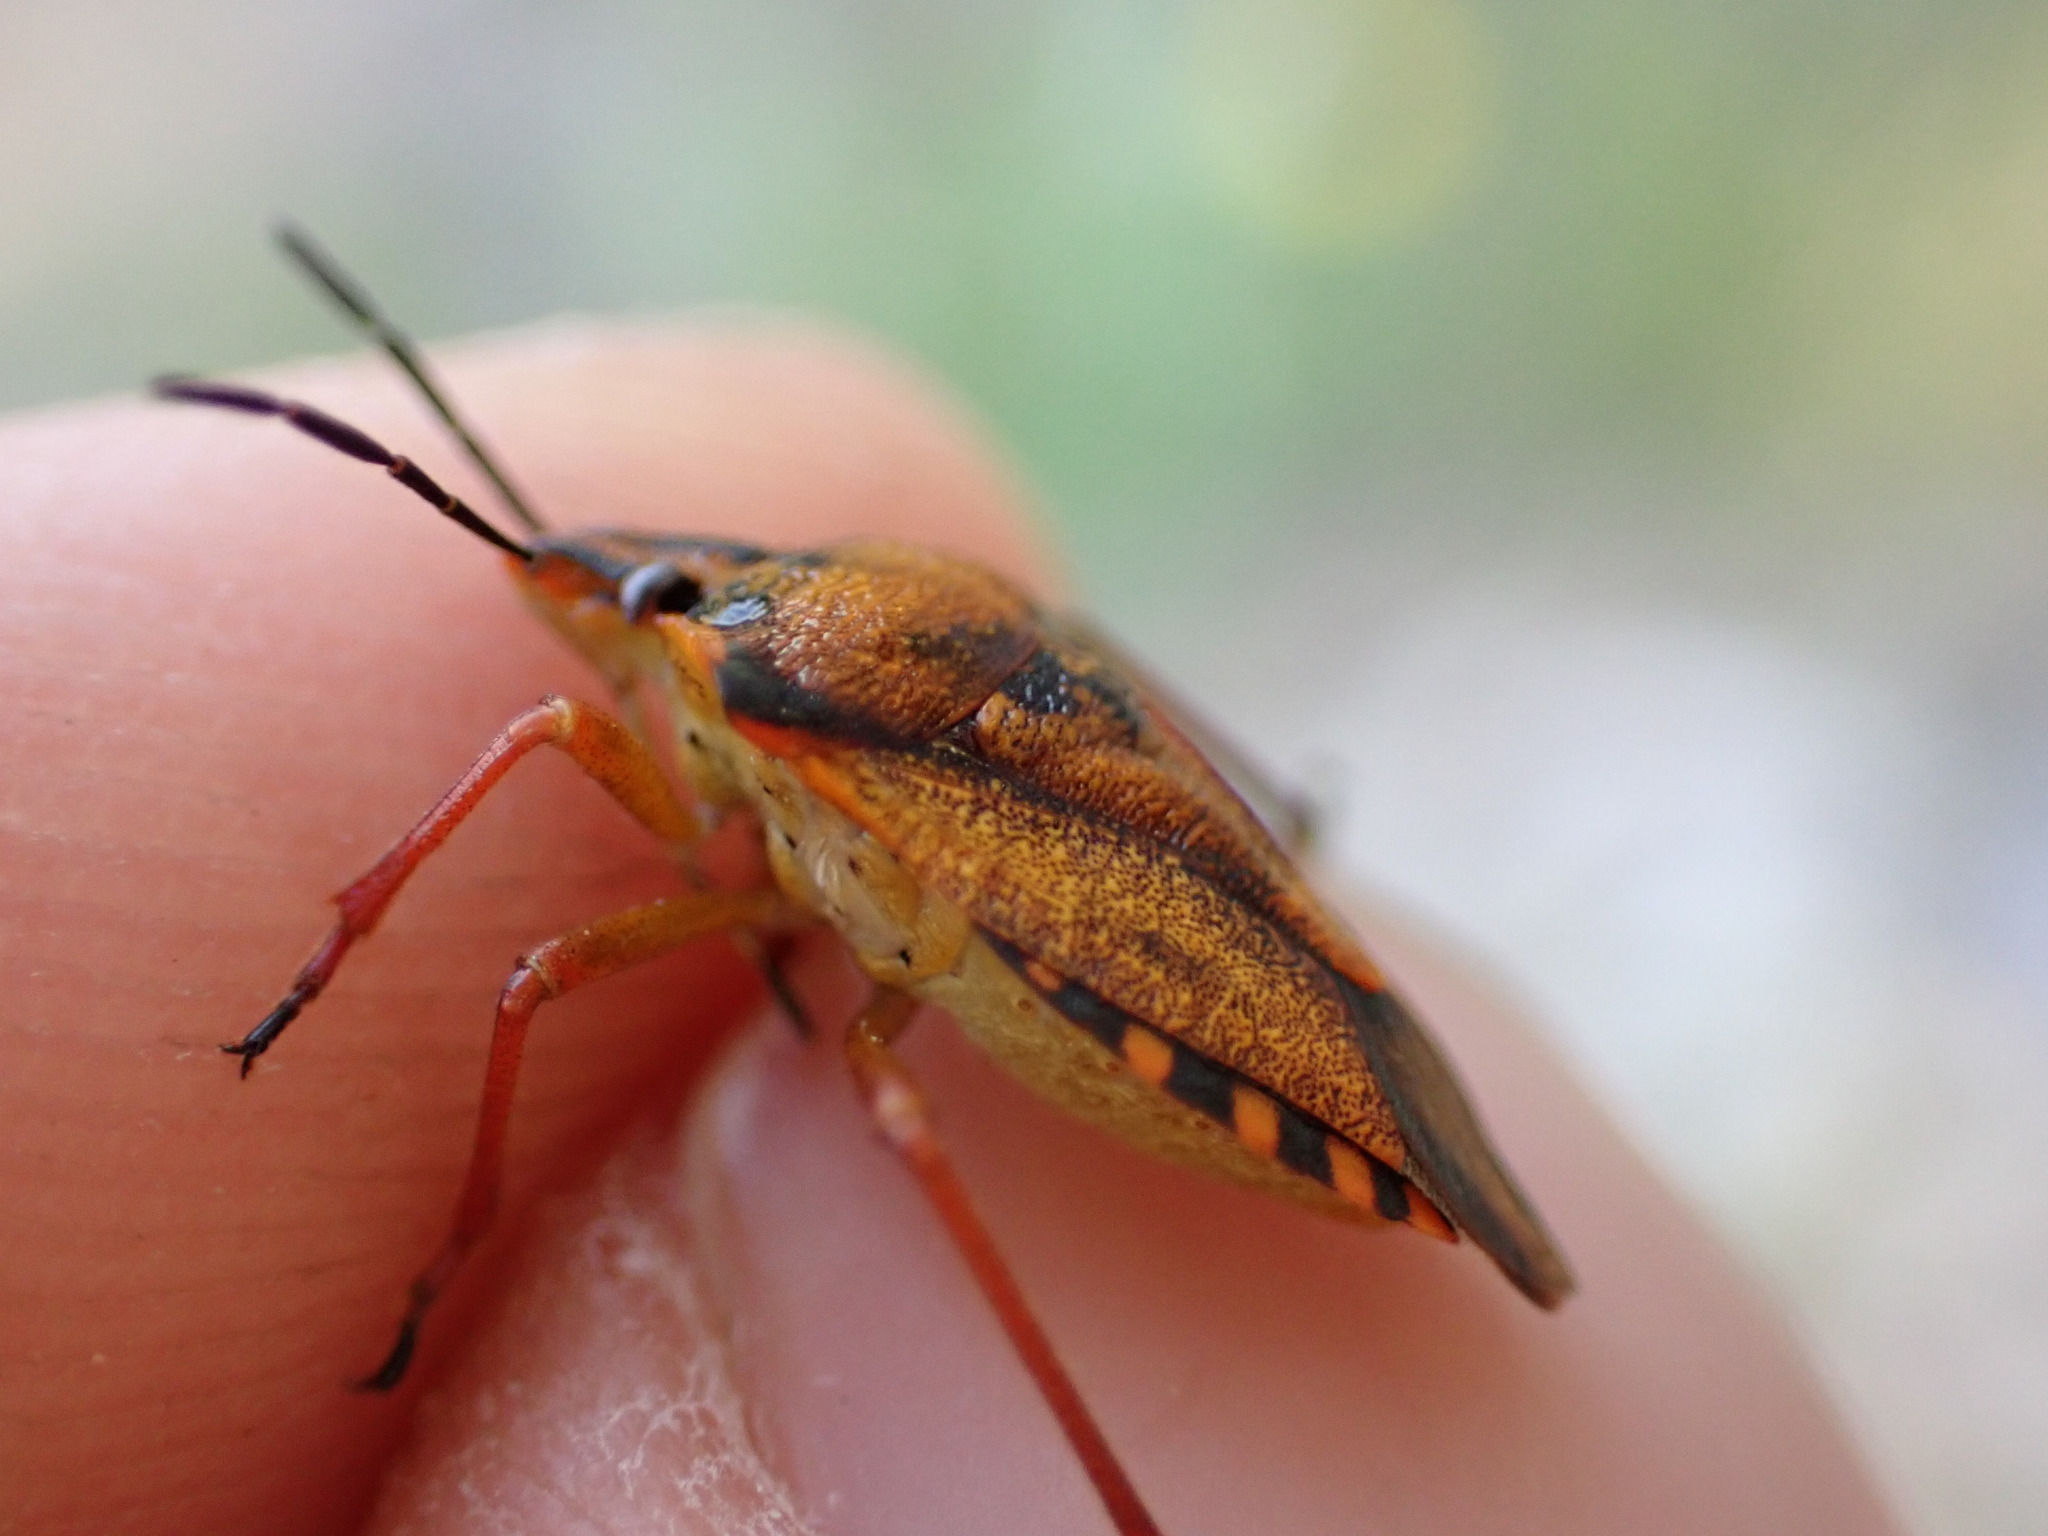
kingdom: Animalia
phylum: Arthropoda
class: Insecta
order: Hemiptera
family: Pentatomidae
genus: Carpocoris
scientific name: Carpocoris mediterraneus
